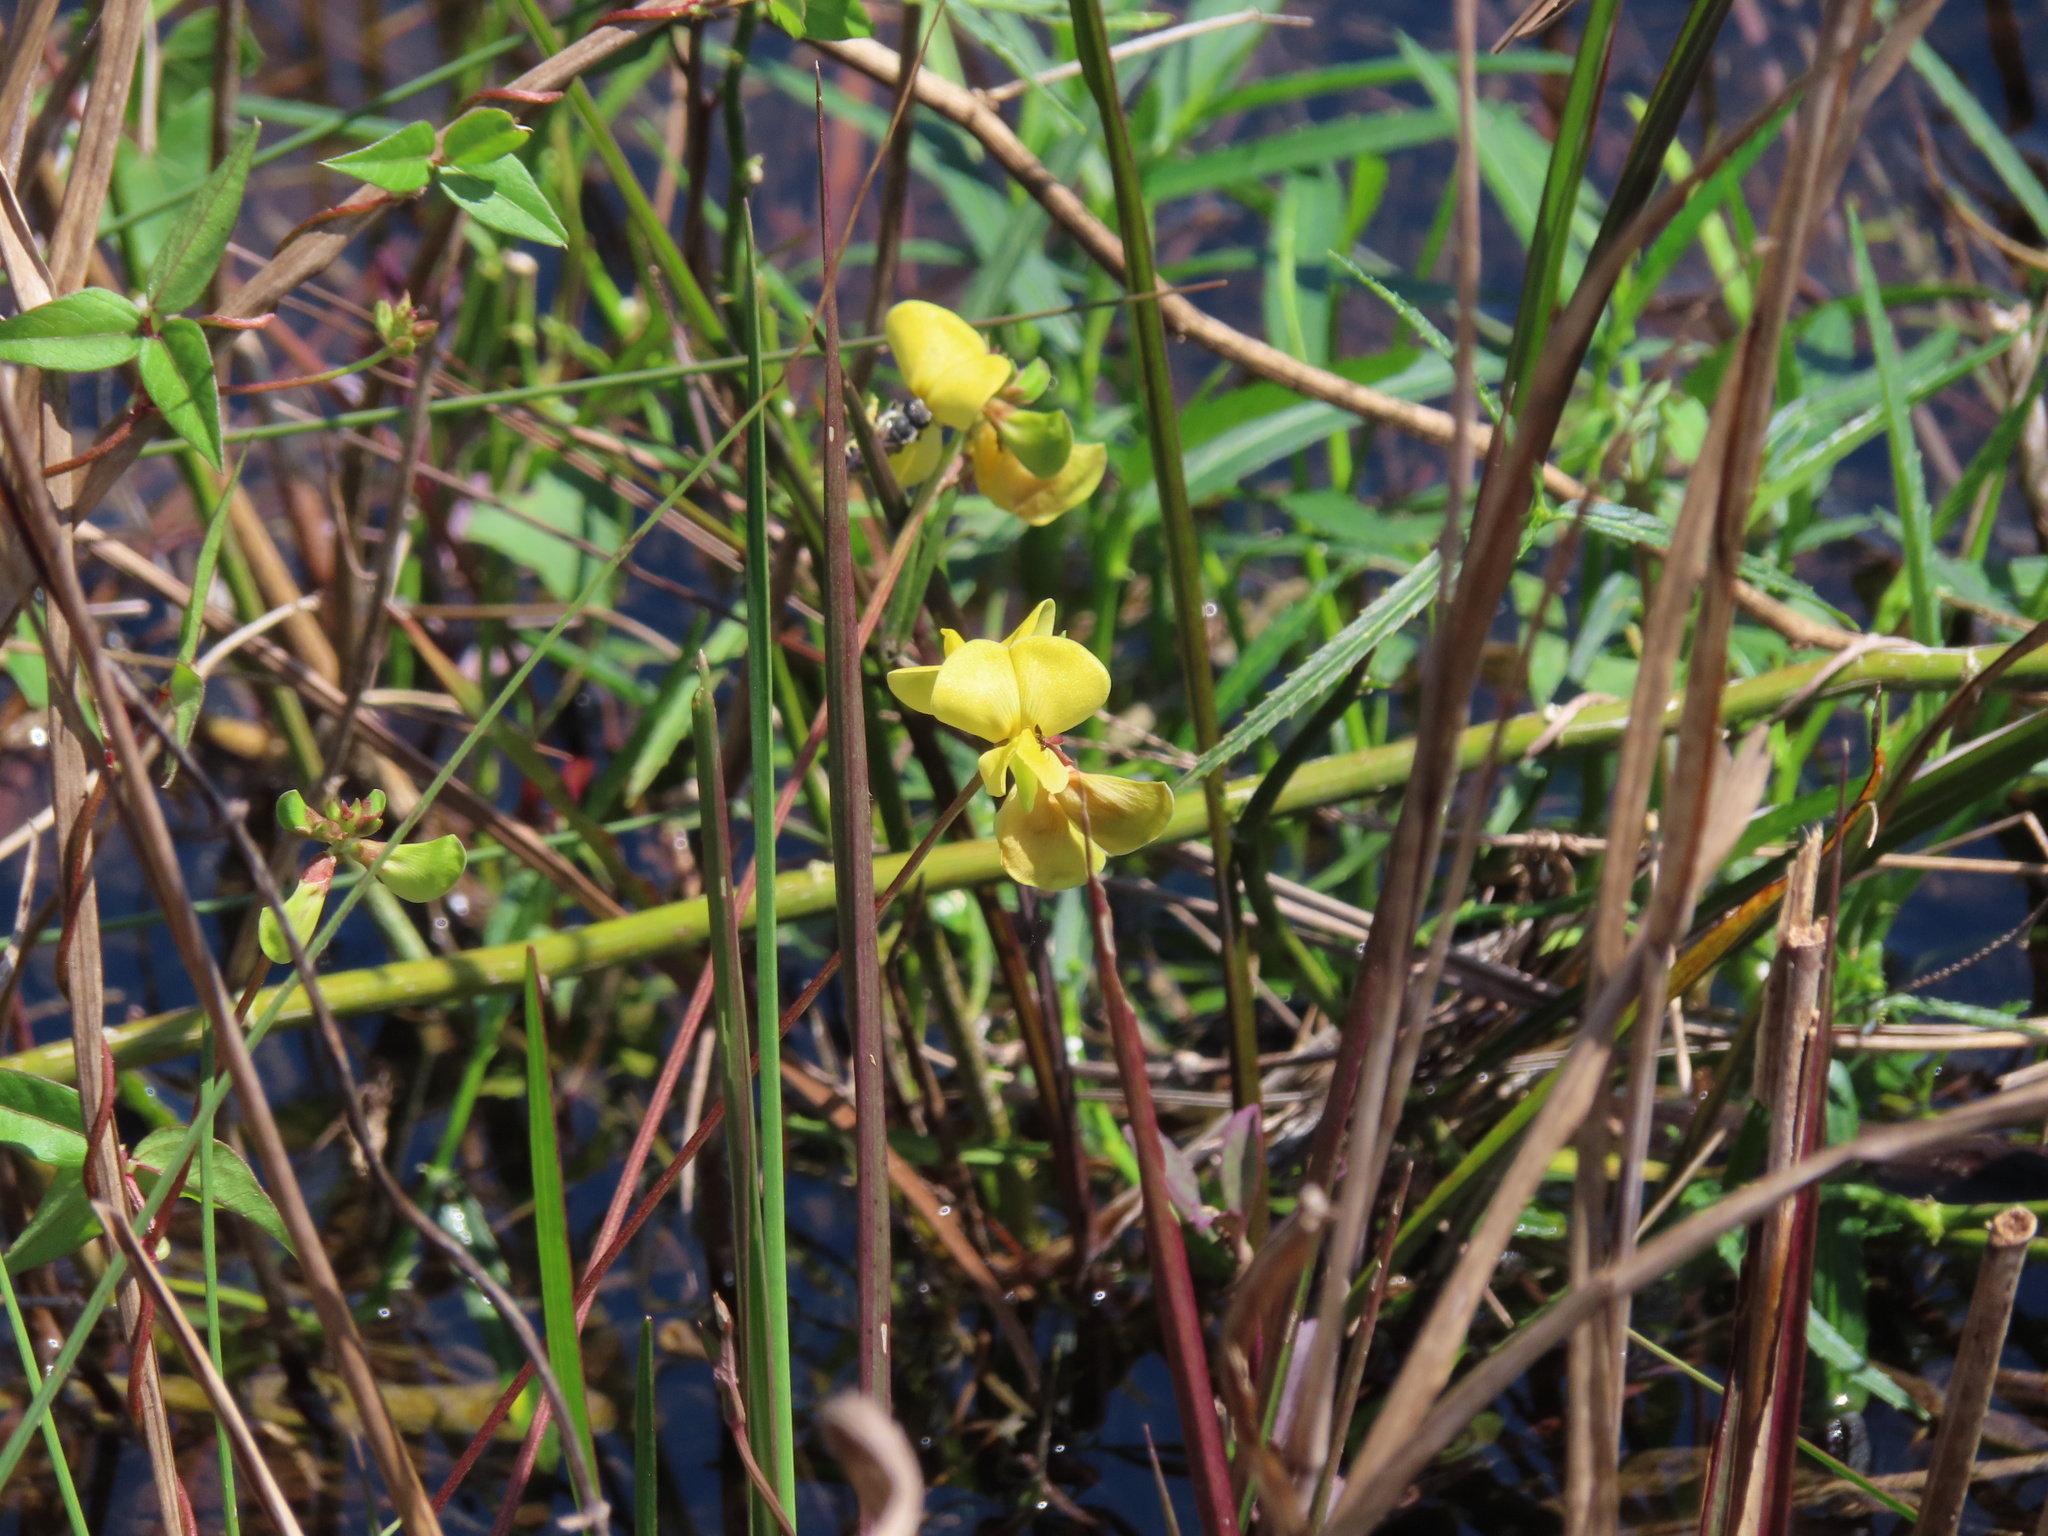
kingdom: Plantae
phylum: Tracheophyta
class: Magnoliopsida
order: Fabales
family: Fabaceae
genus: Vigna
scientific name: Vigna luteola
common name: Hairypod cowpea
